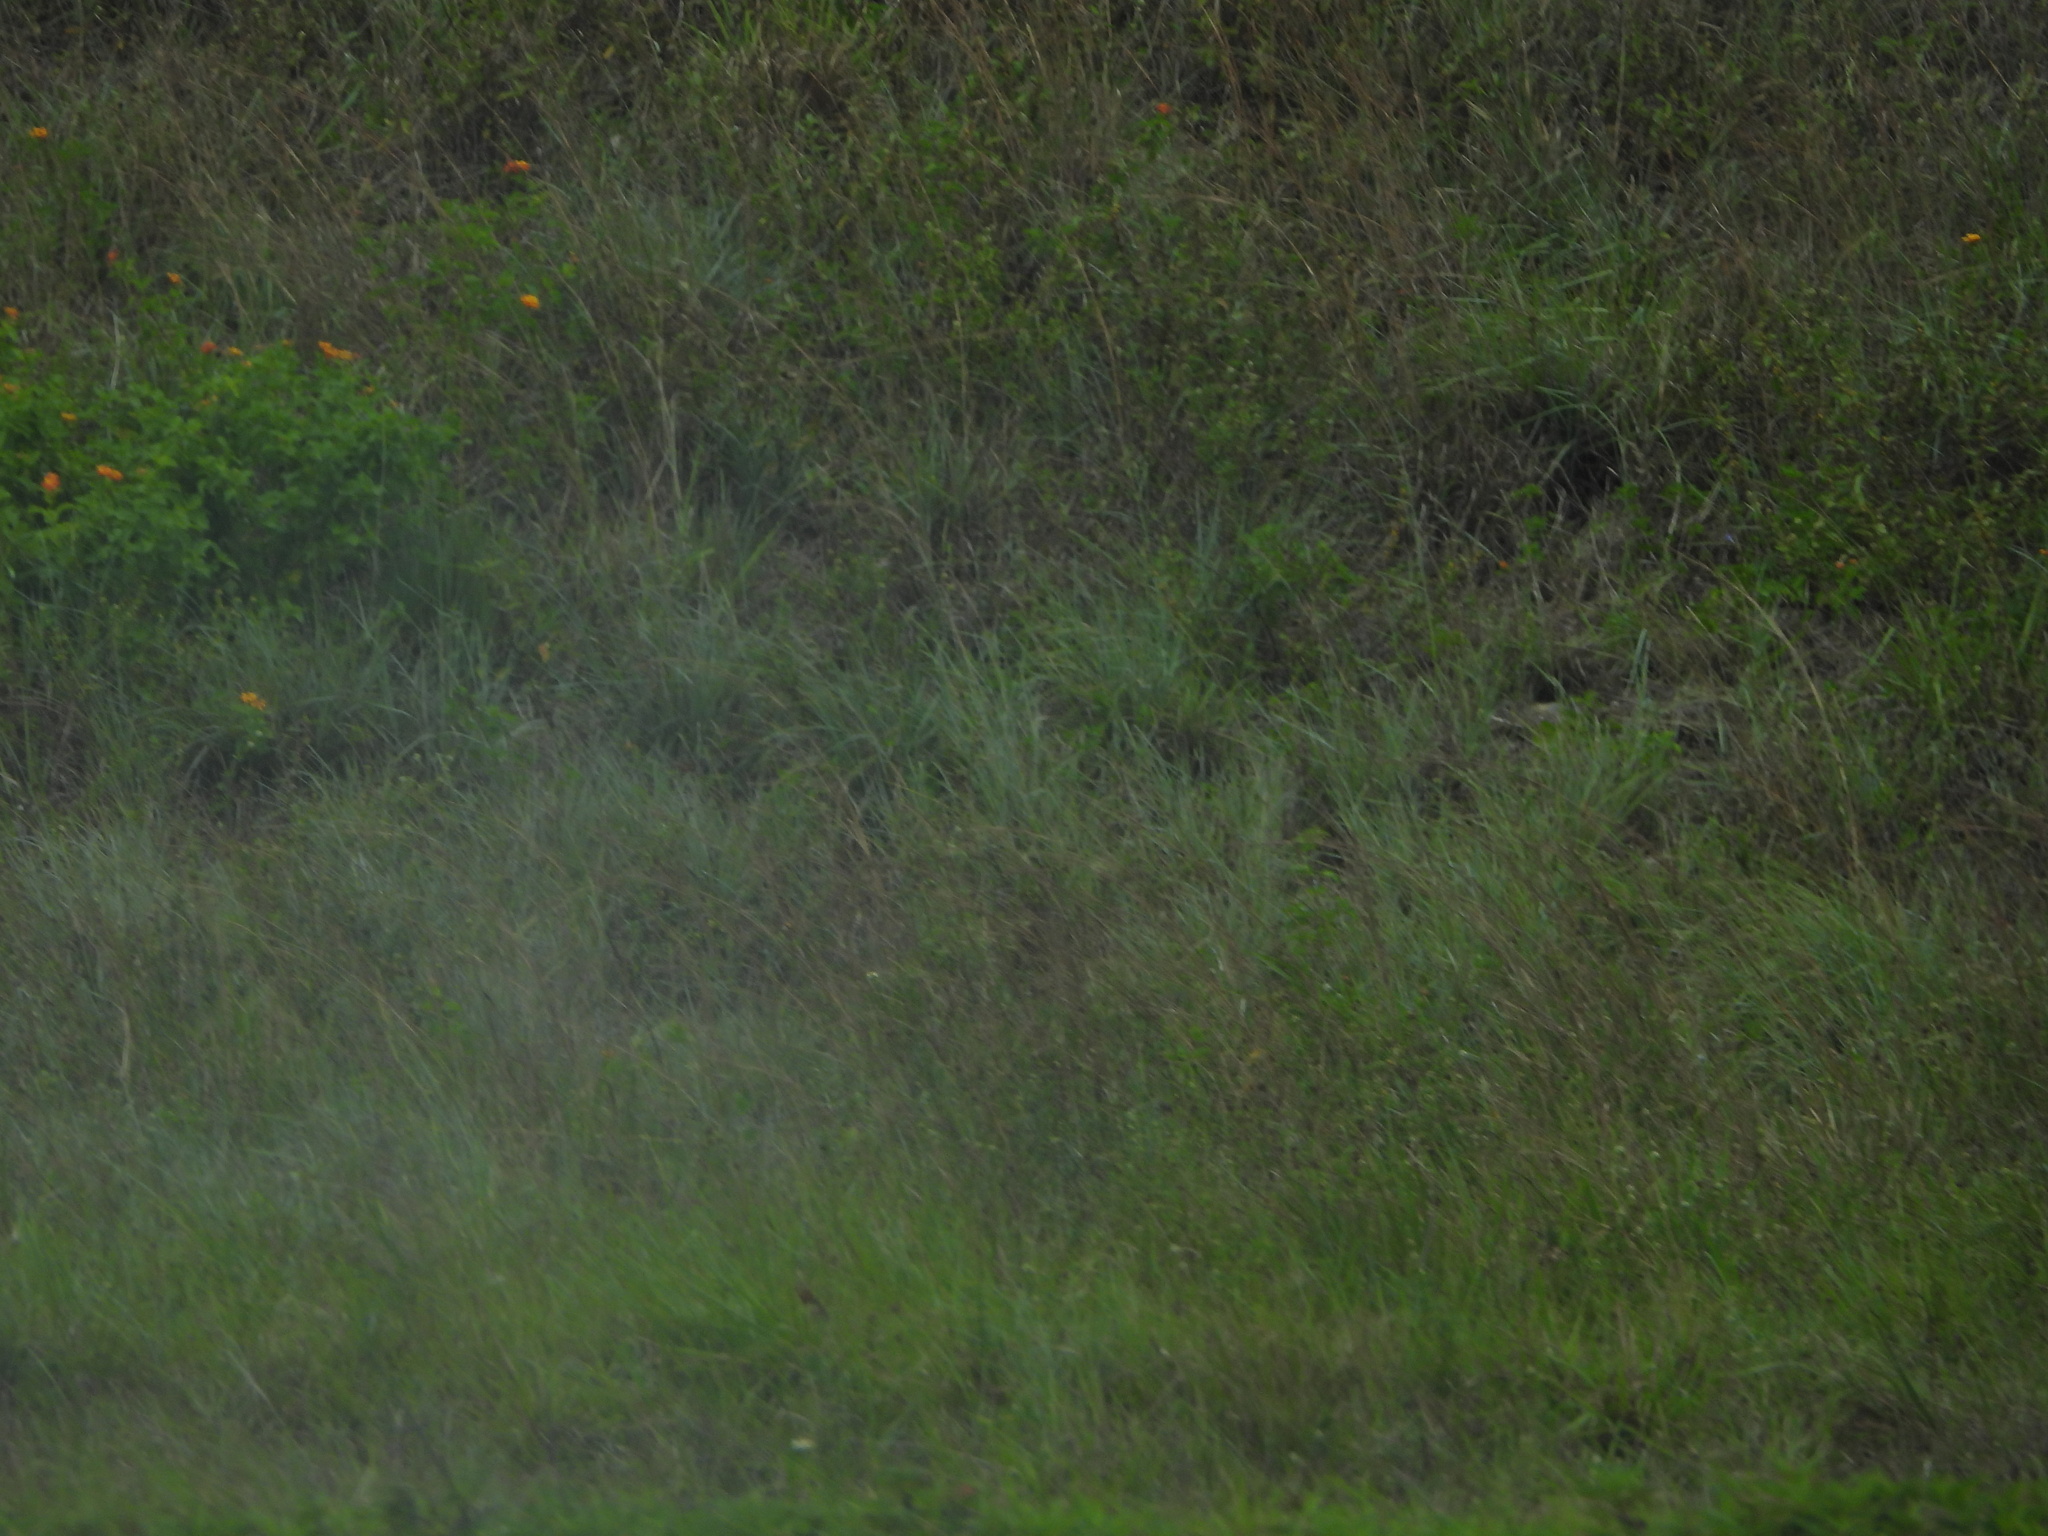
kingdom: Plantae
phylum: Tracheophyta
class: Magnoliopsida
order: Lamiales
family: Verbenaceae
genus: Lantana
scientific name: Lantana camara
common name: Lantana
